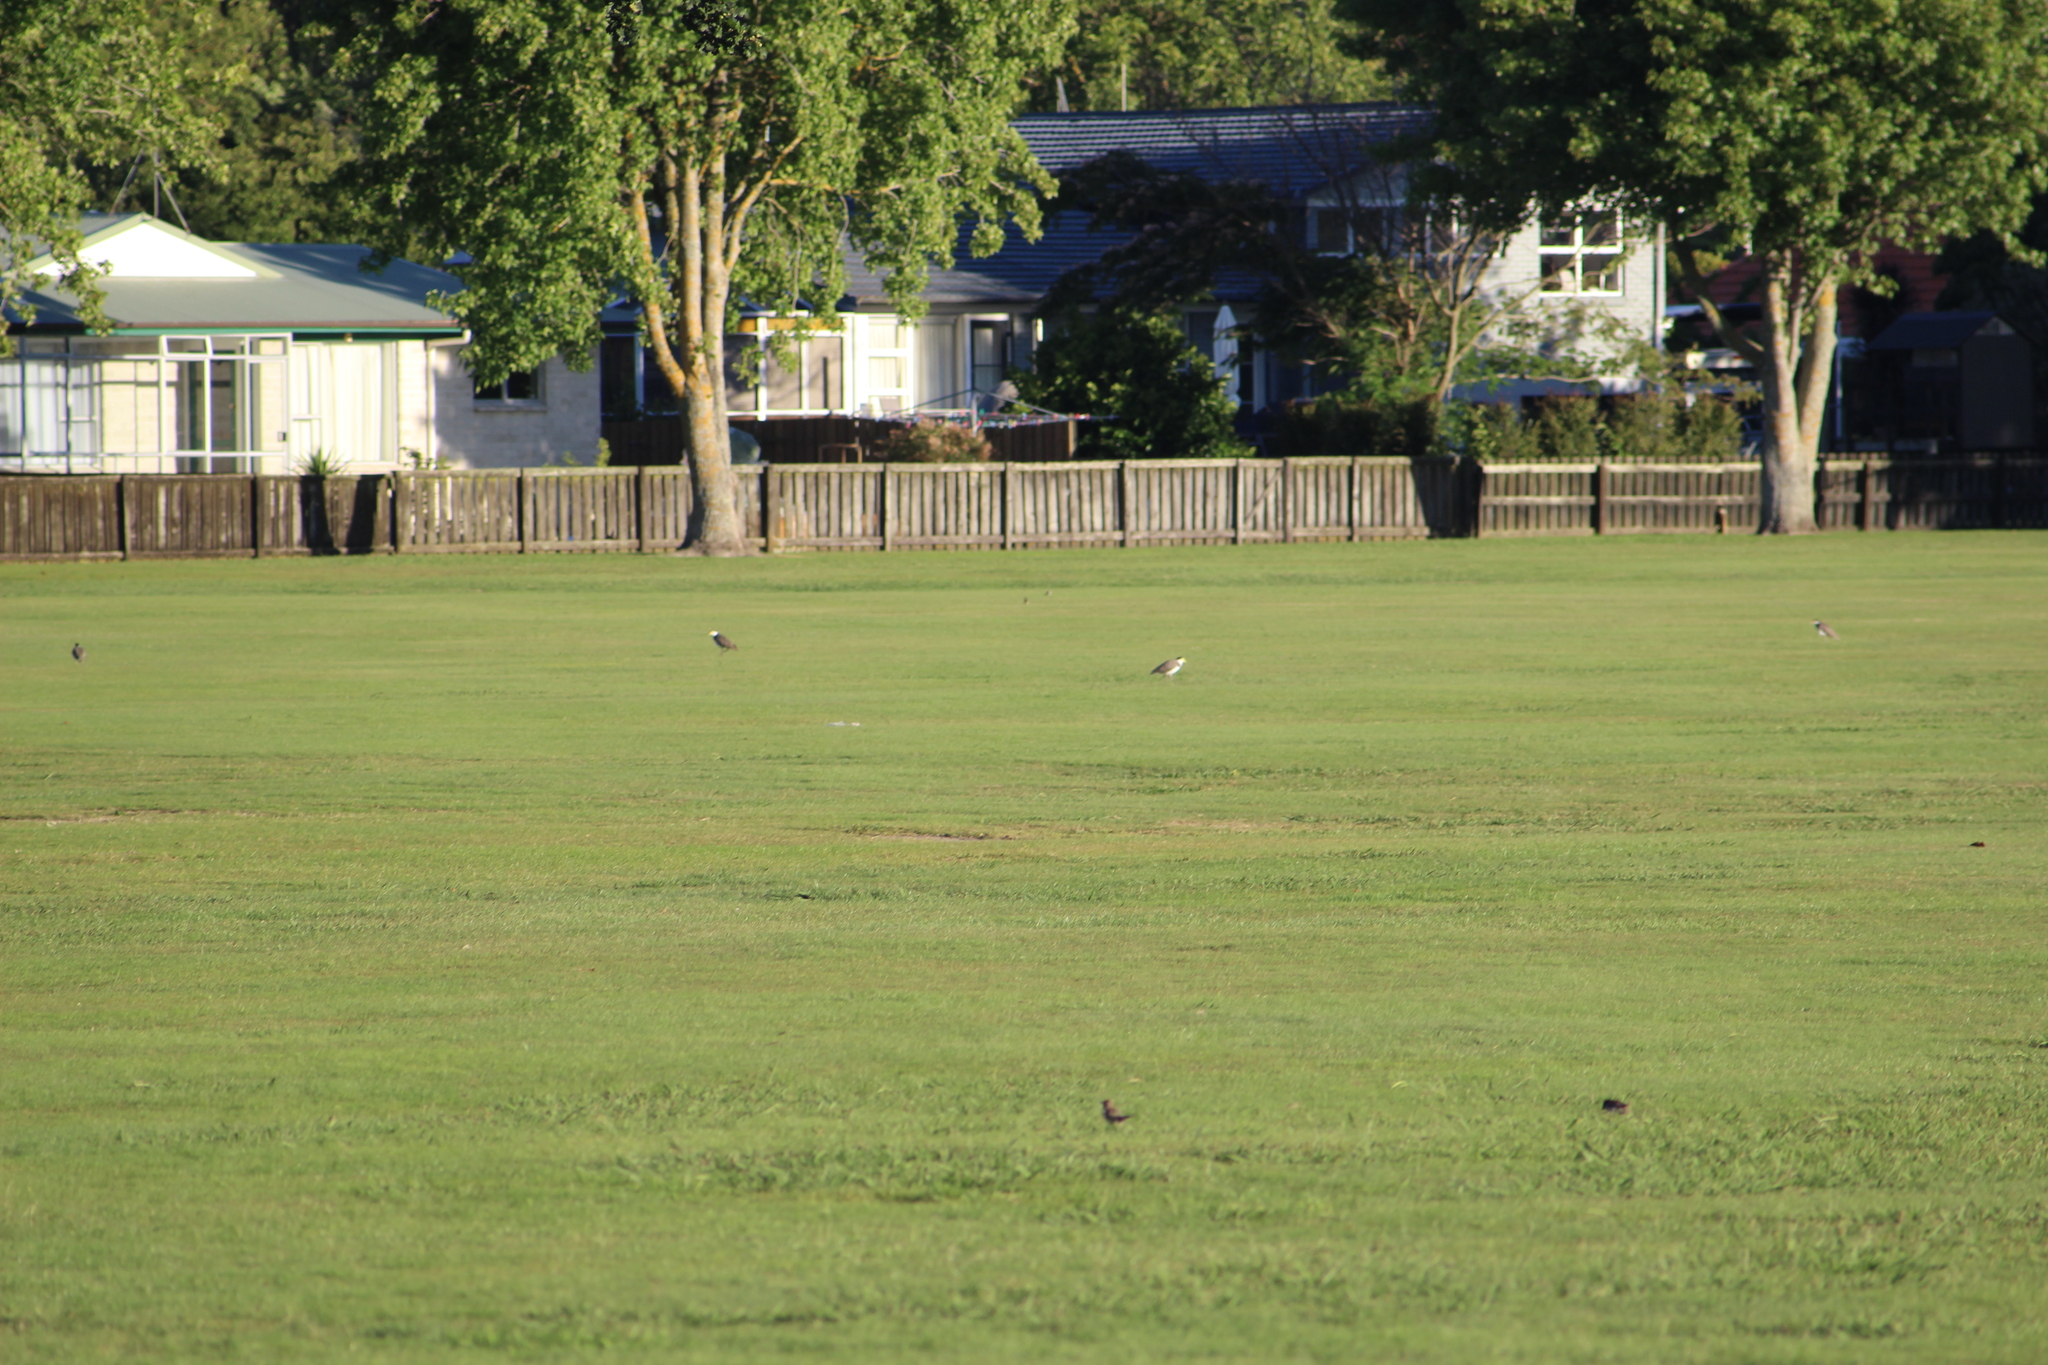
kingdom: Animalia
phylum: Chordata
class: Aves
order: Charadriiformes
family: Charadriidae
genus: Vanellus
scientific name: Vanellus miles
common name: Masked lapwing
